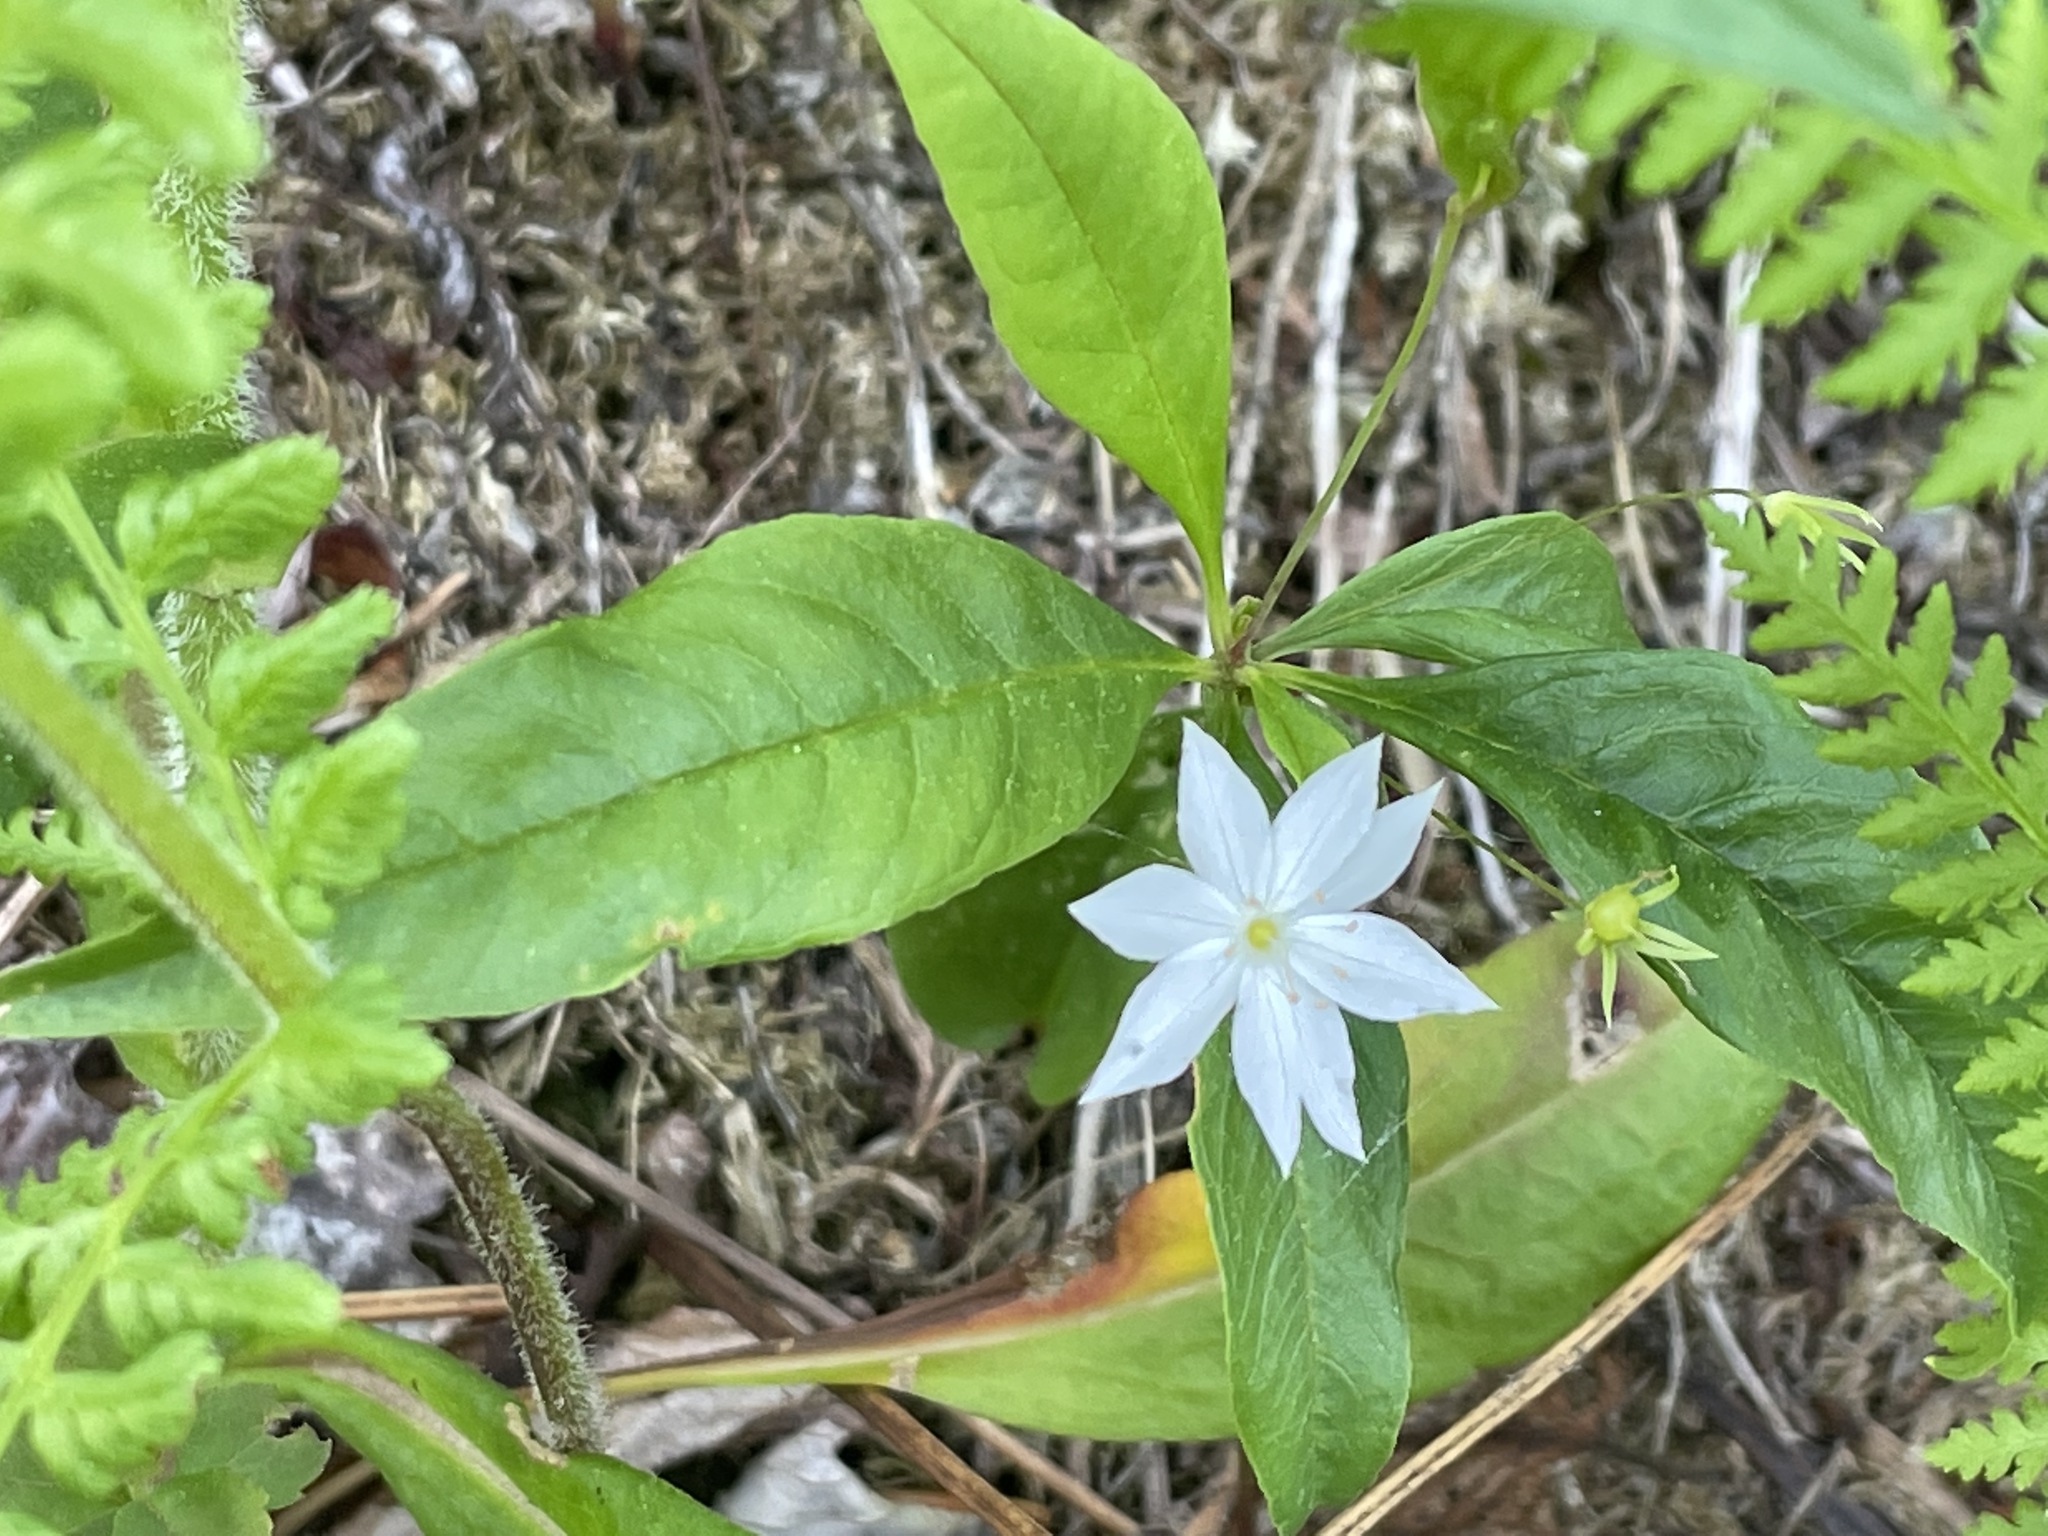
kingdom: Plantae
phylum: Tracheophyta
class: Magnoliopsida
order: Ericales
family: Primulaceae
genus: Lysimachia
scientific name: Lysimachia borealis
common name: American starflower
